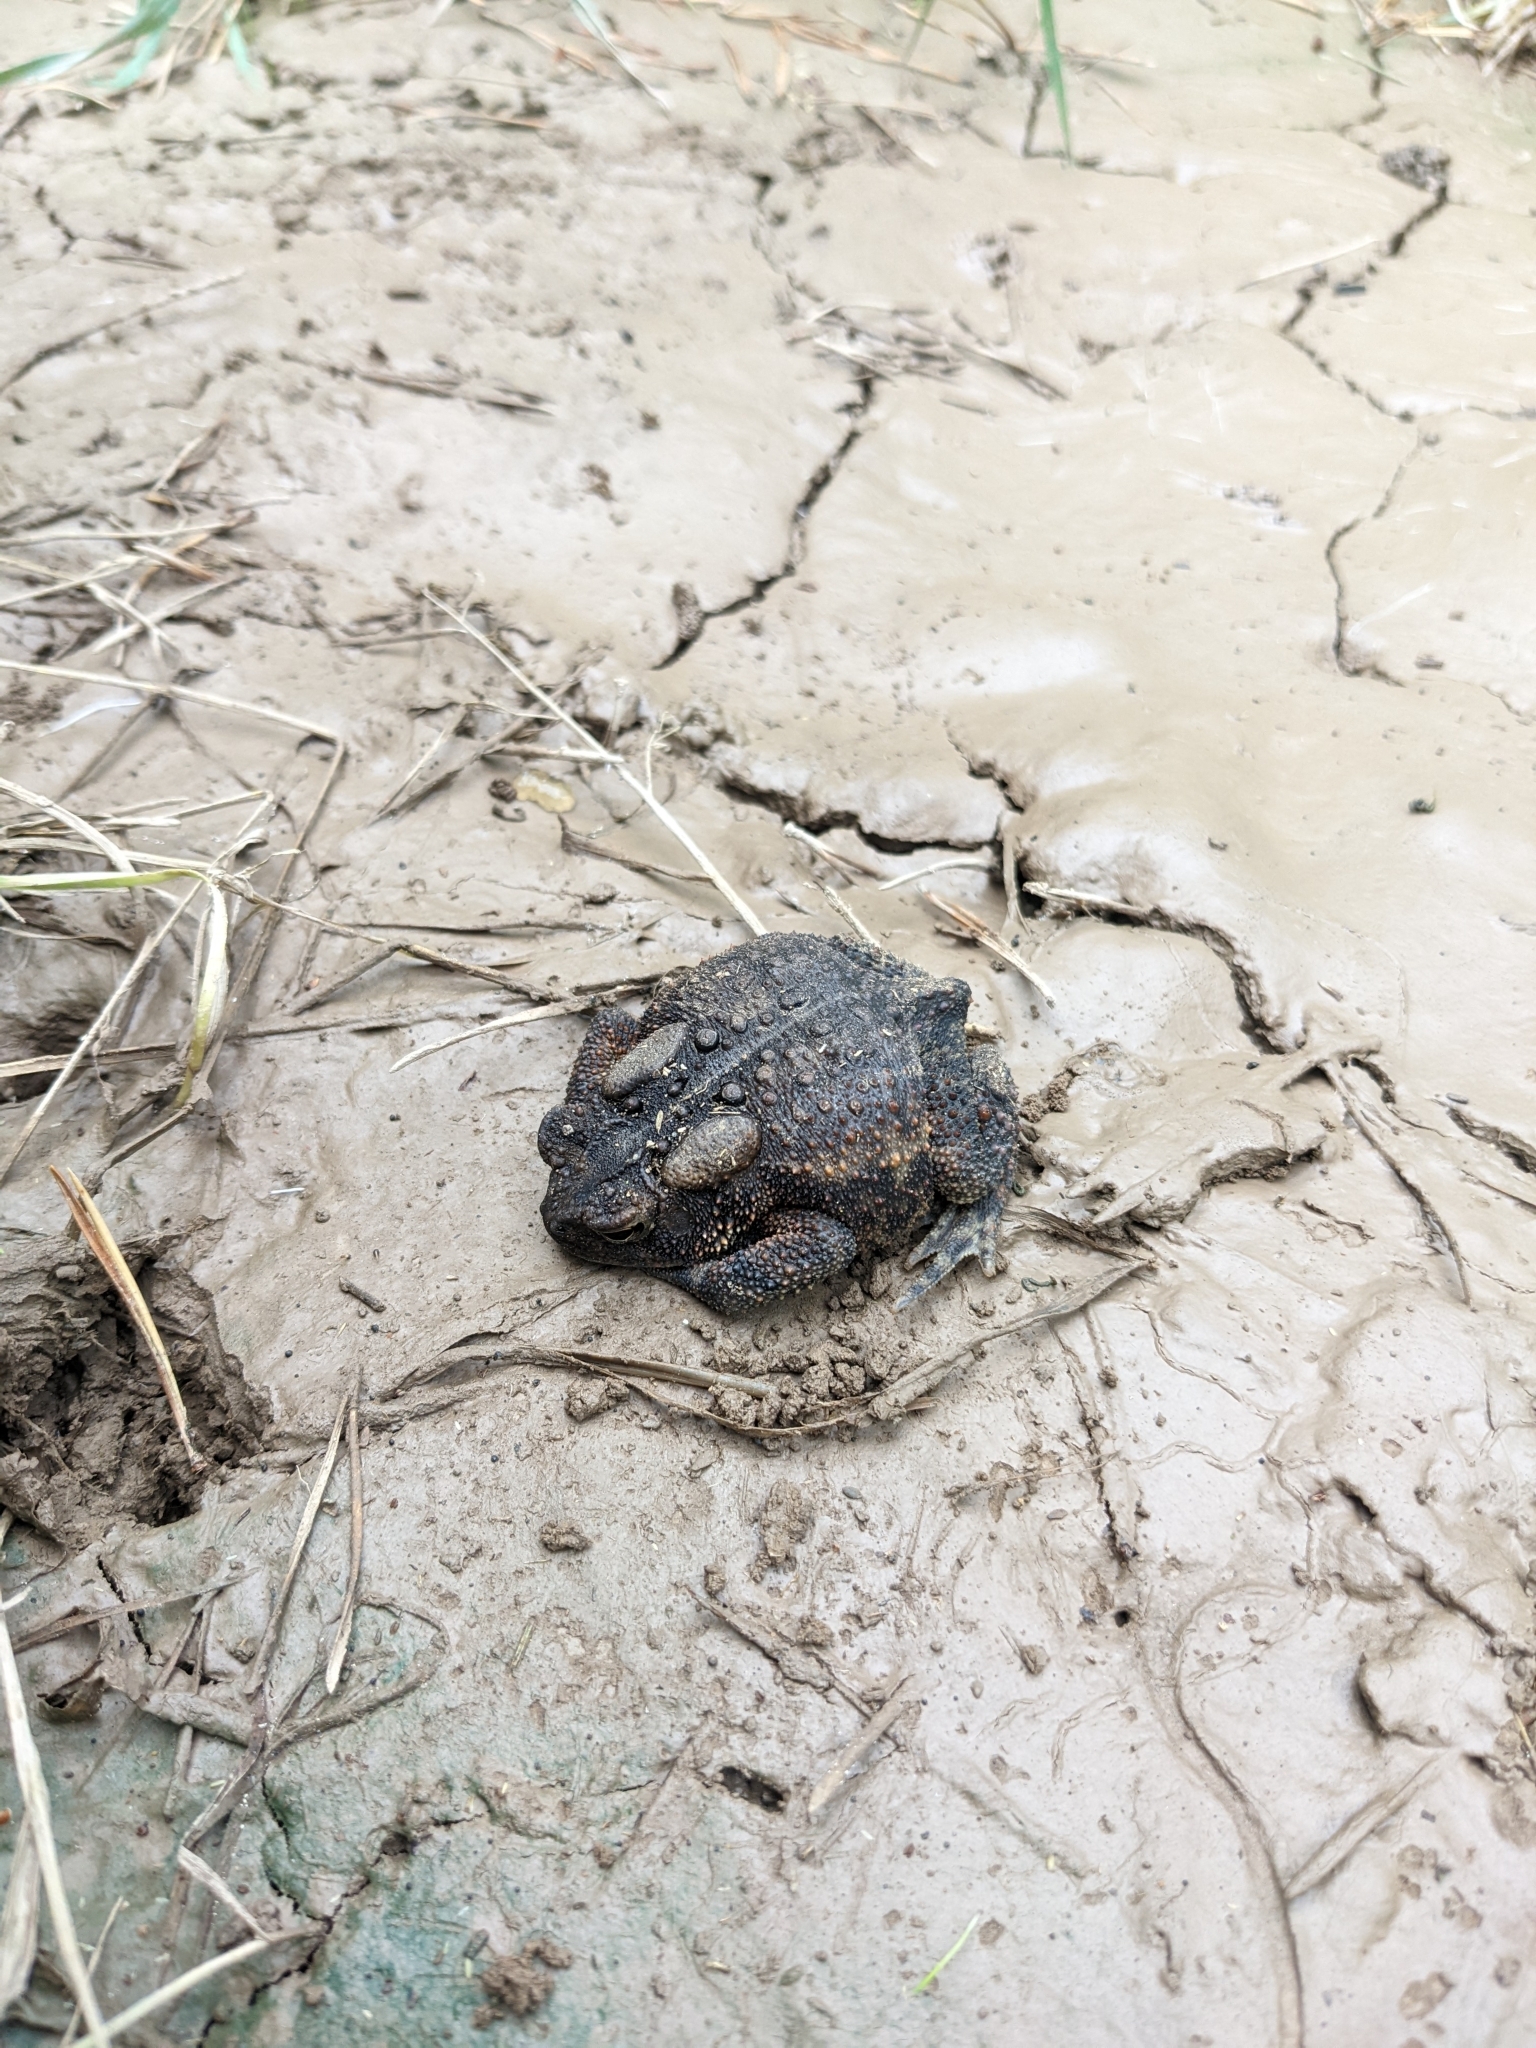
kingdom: Animalia
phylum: Chordata
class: Amphibia
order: Anura
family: Bufonidae
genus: Anaxyrus
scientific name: Anaxyrus americanus
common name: American toad
